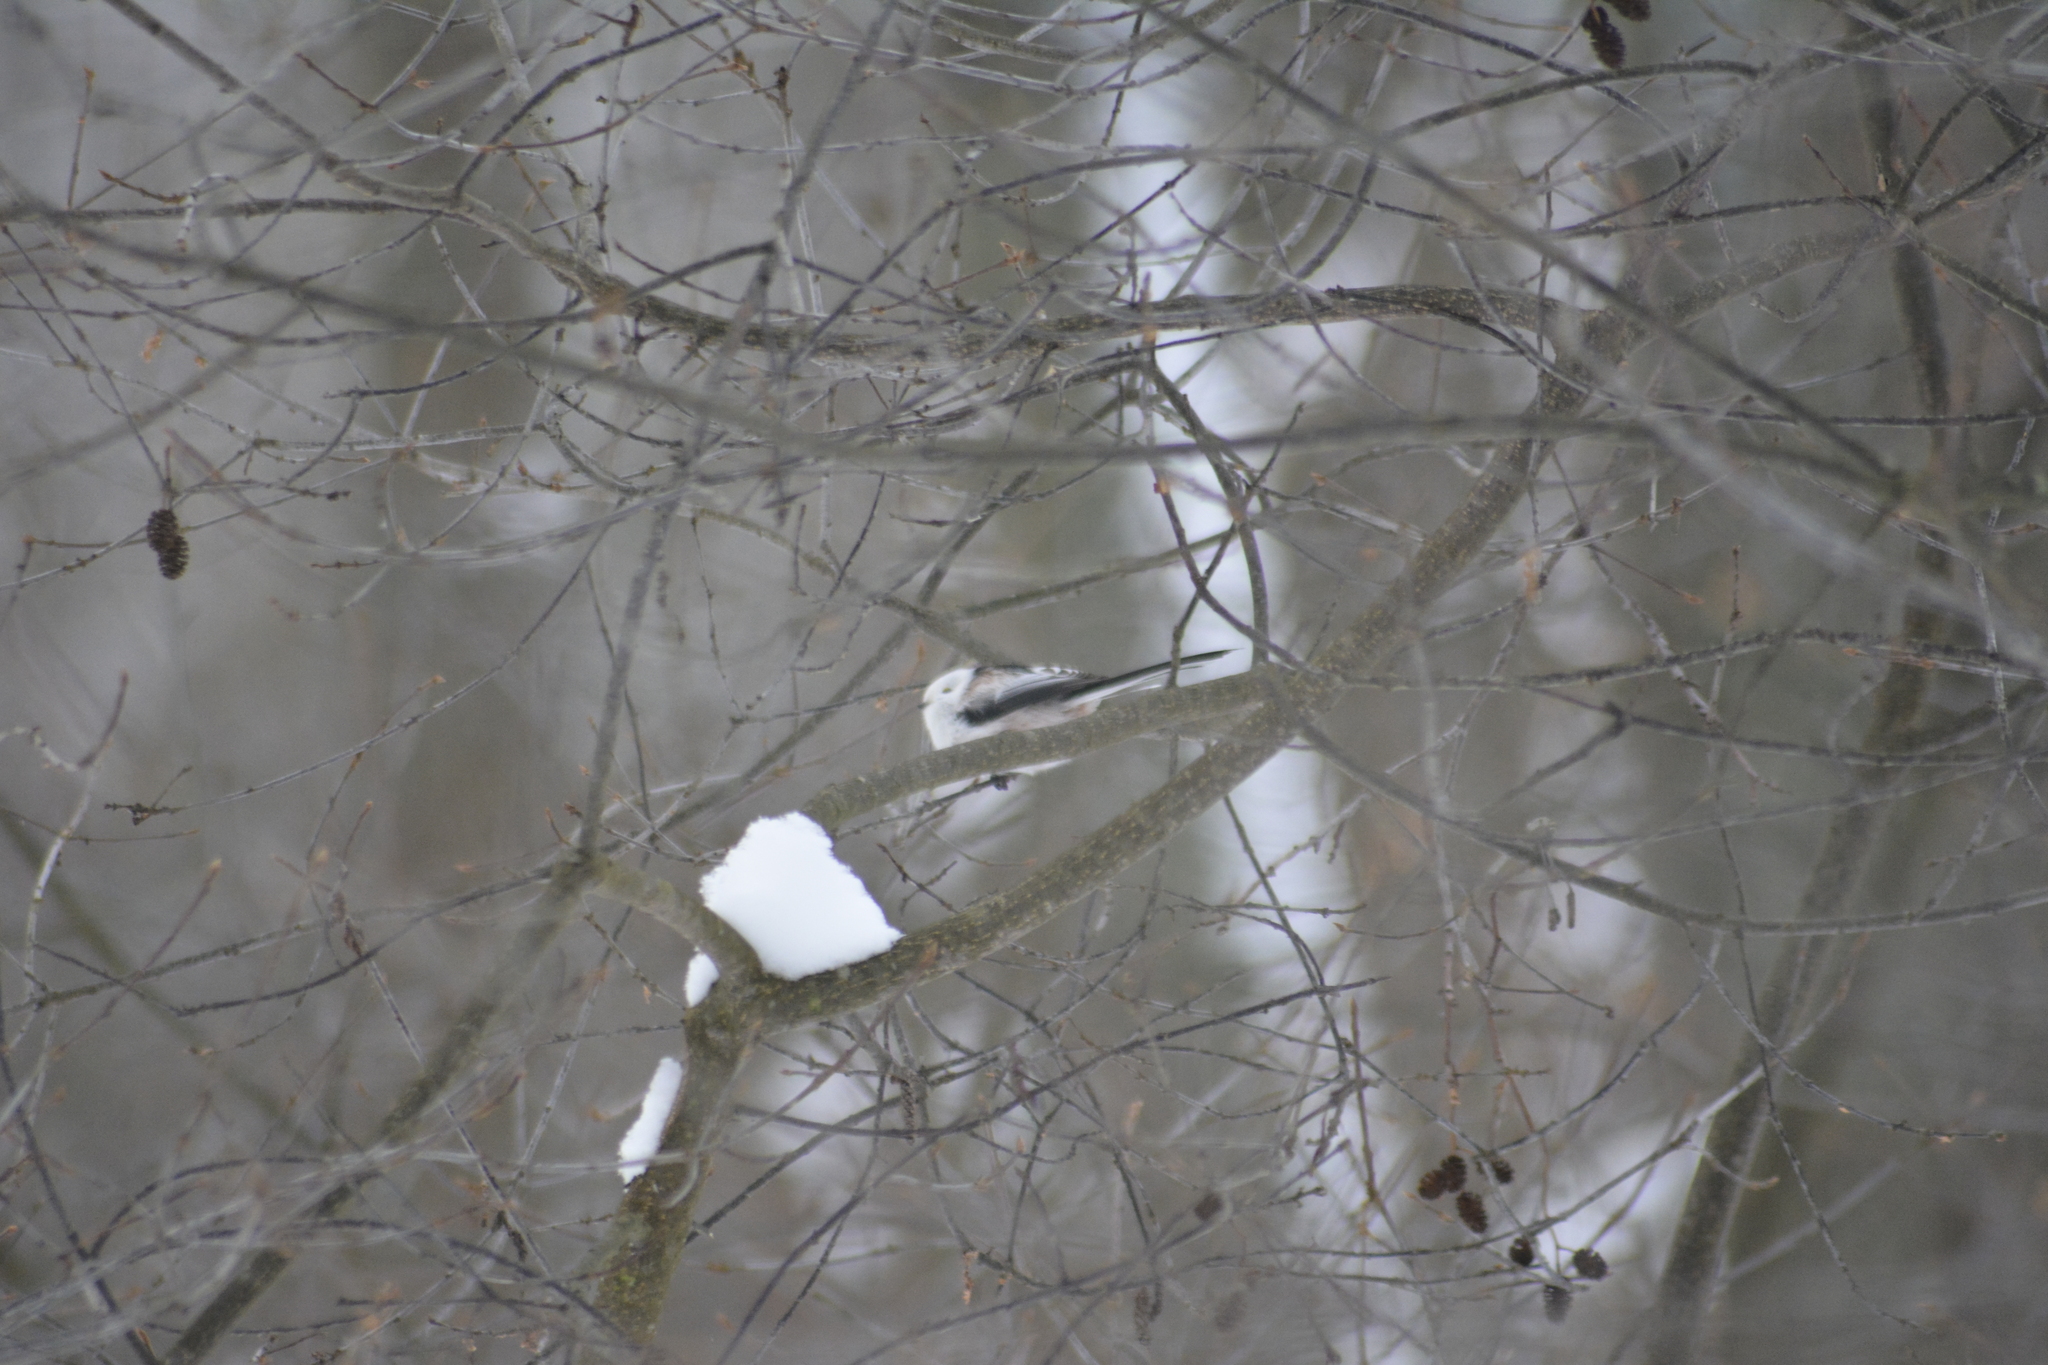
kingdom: Animalia
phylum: Chordata
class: Aves
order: Passeriformes
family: Aegithalidae
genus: Aegithalos
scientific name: Aegithalos caudatus
